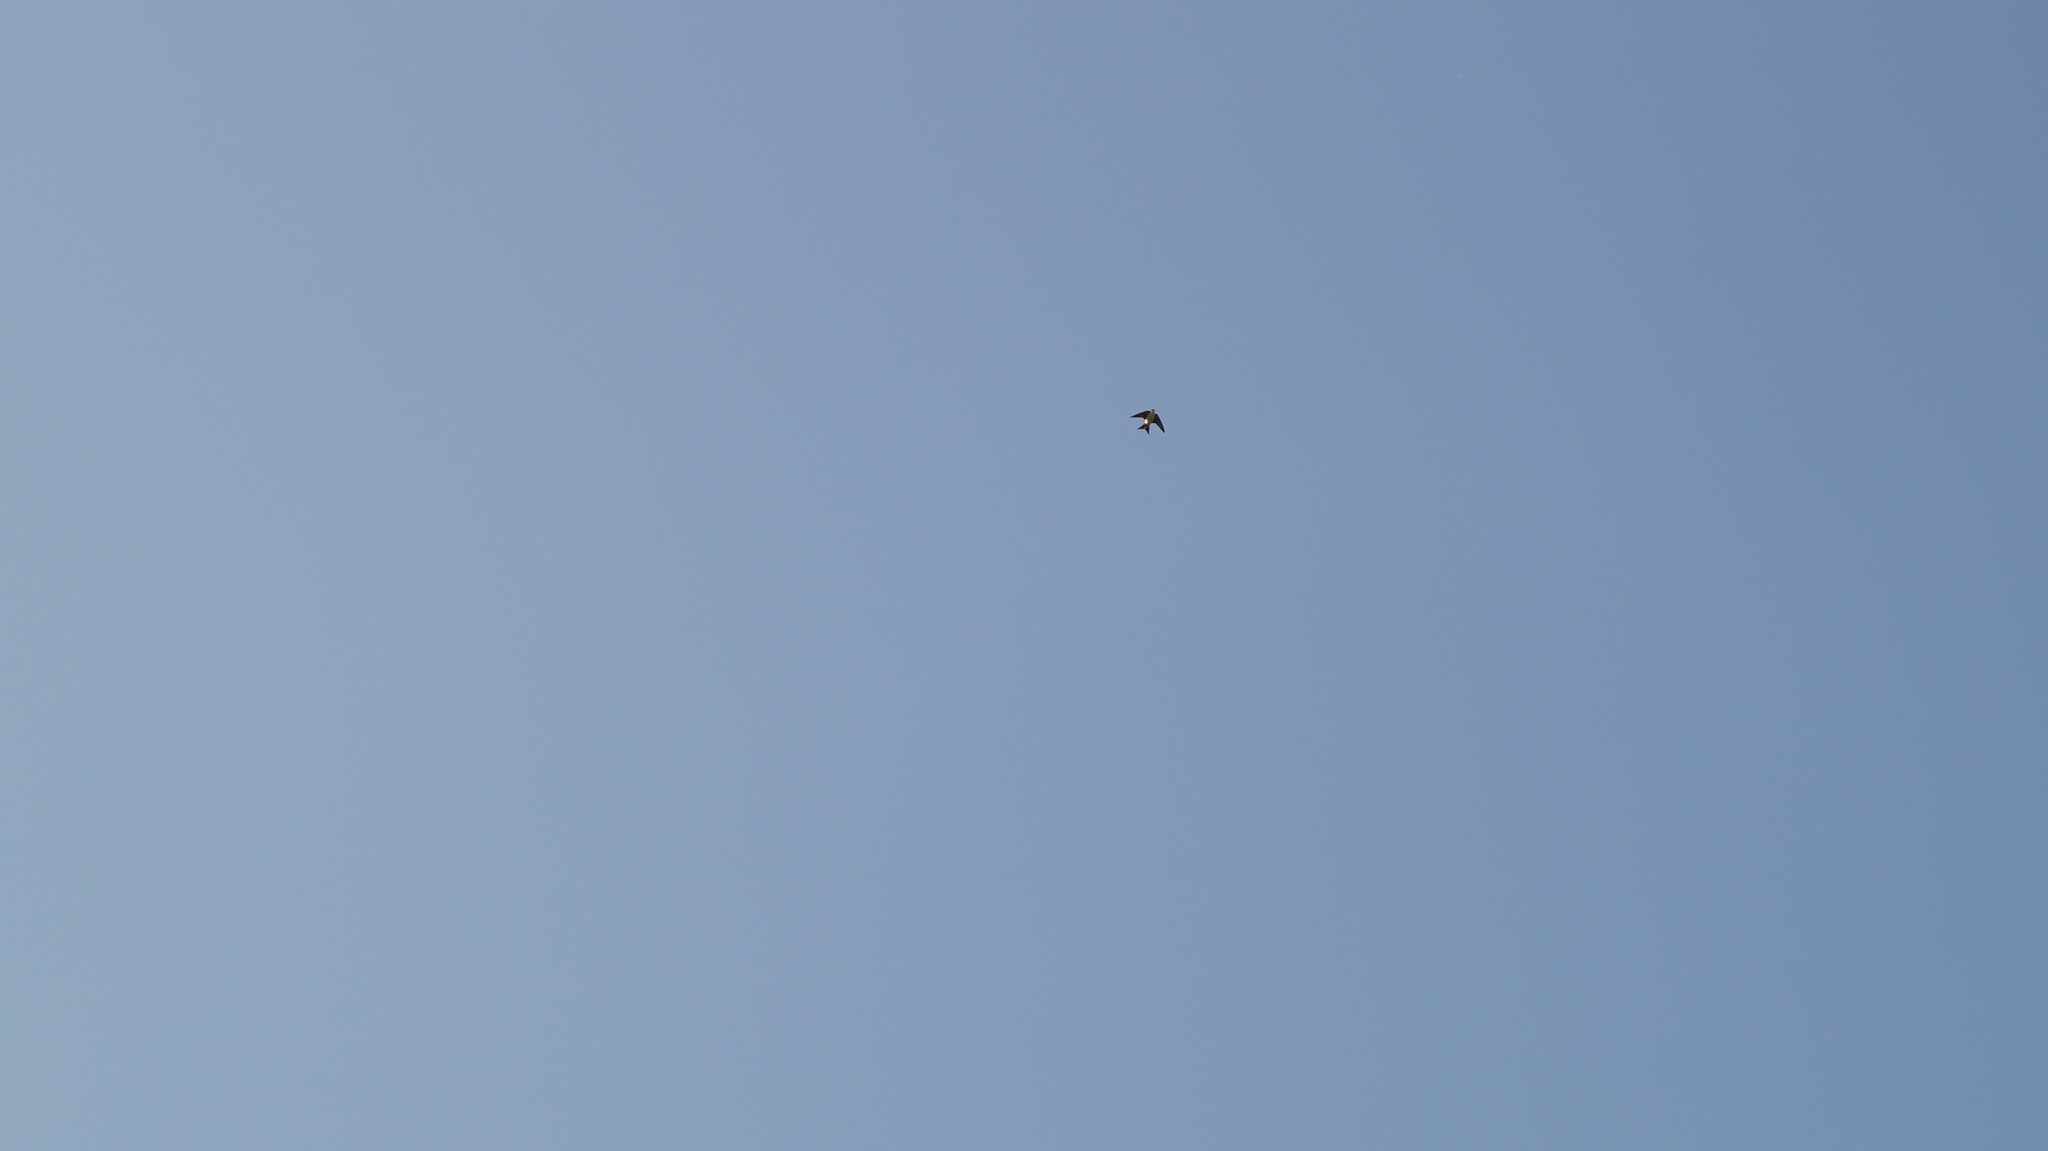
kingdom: Animalia
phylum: Chordata
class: Aves
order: Passeriformes
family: Hirundinidae
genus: Delichon
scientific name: Delichon urbicum
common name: Common house martin
